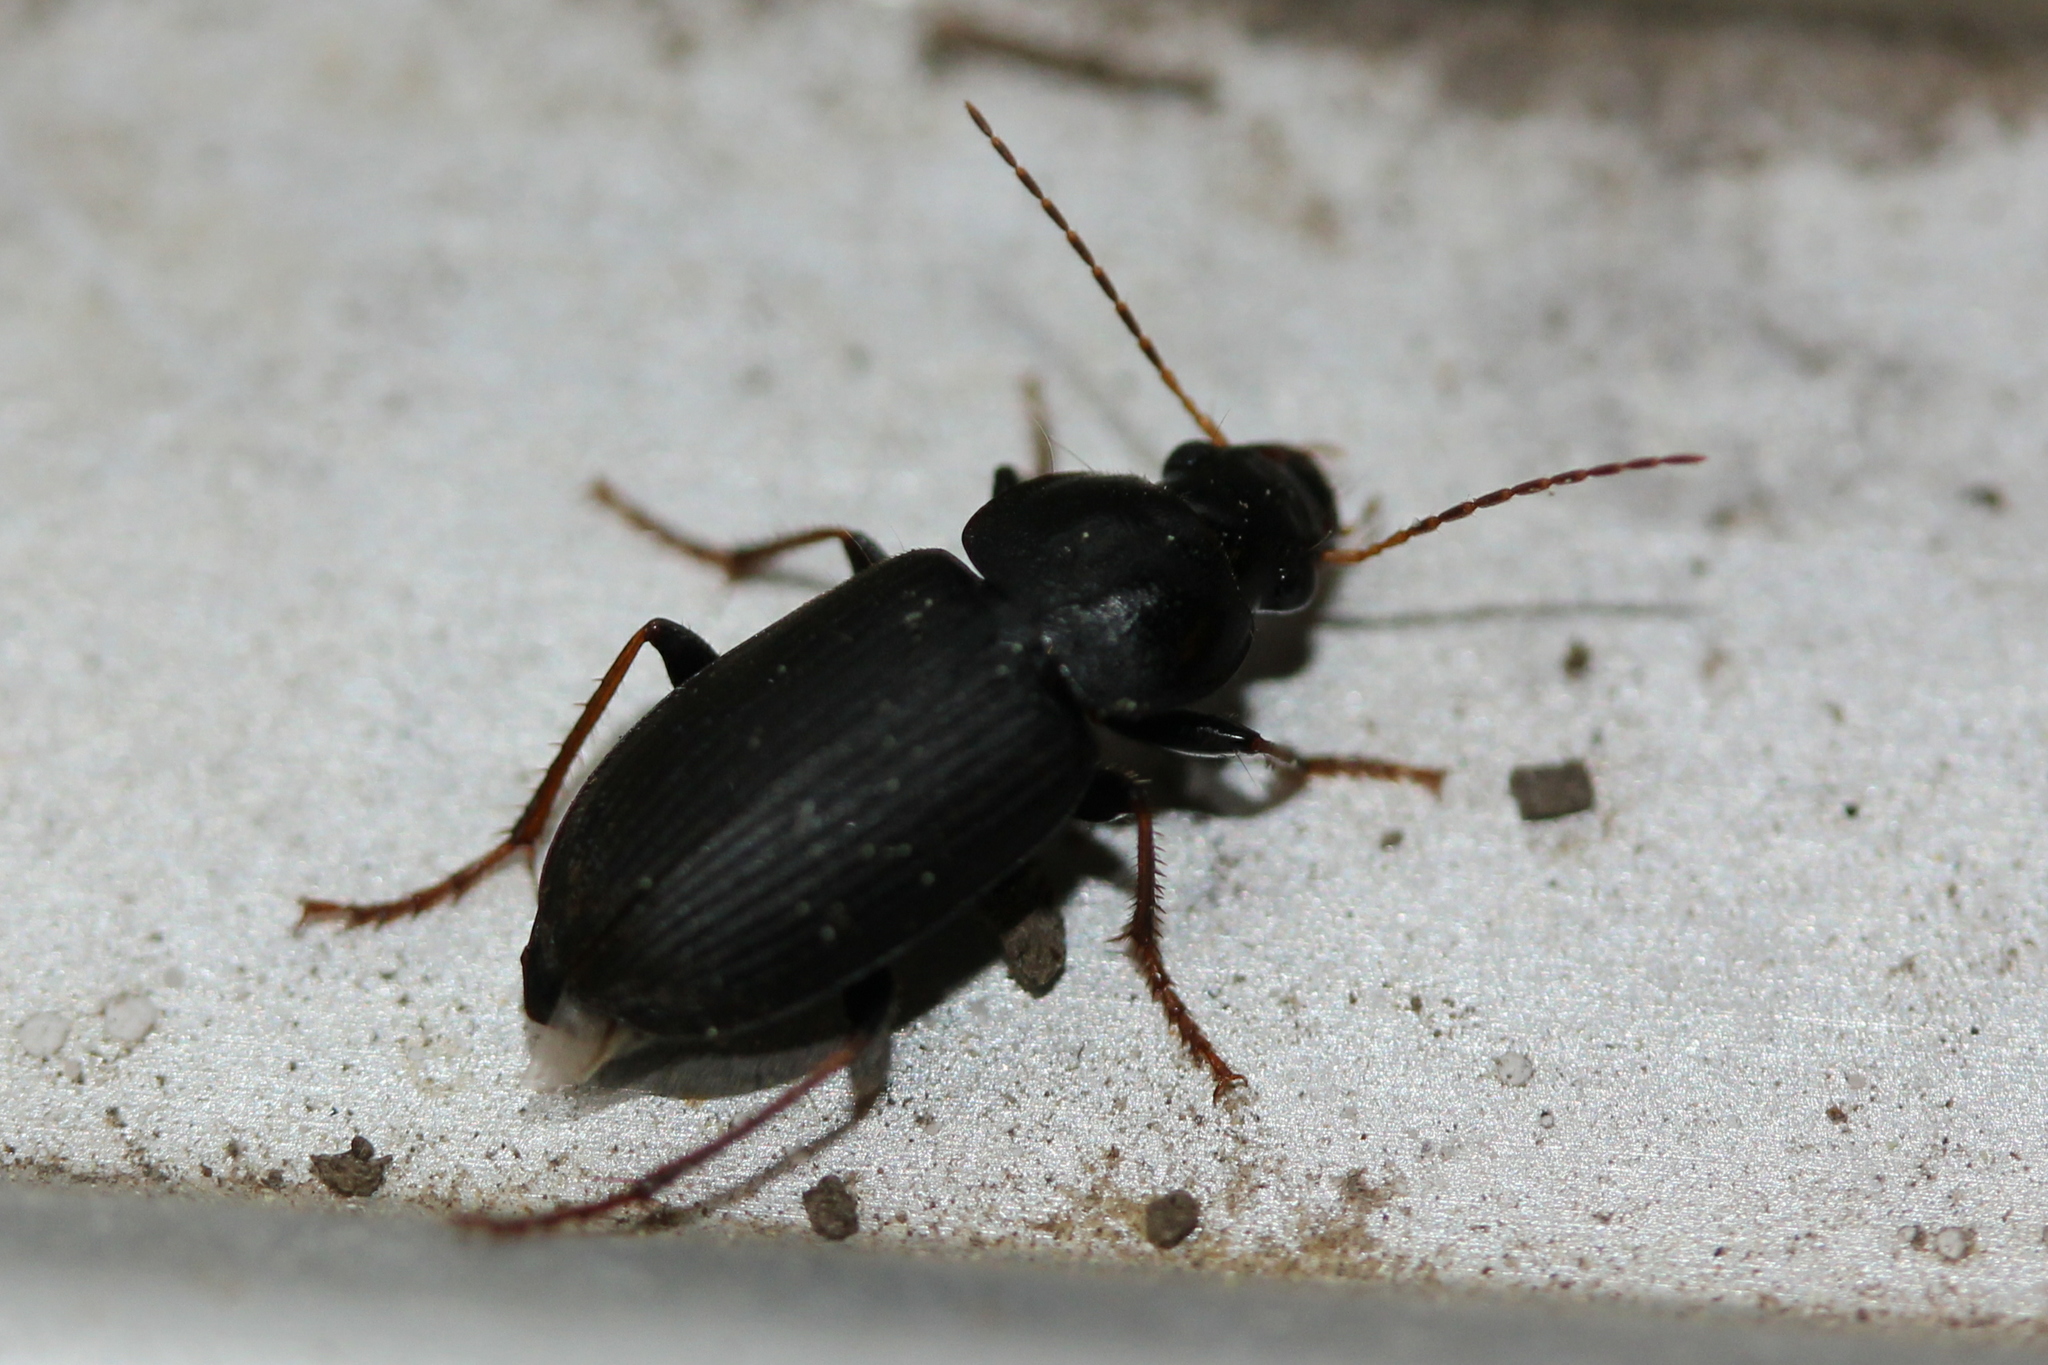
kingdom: Animalia
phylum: Arthropoda
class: Insecta
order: Coleoptera
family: Carabidae
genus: Amphasia
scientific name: Amphasia sericea
